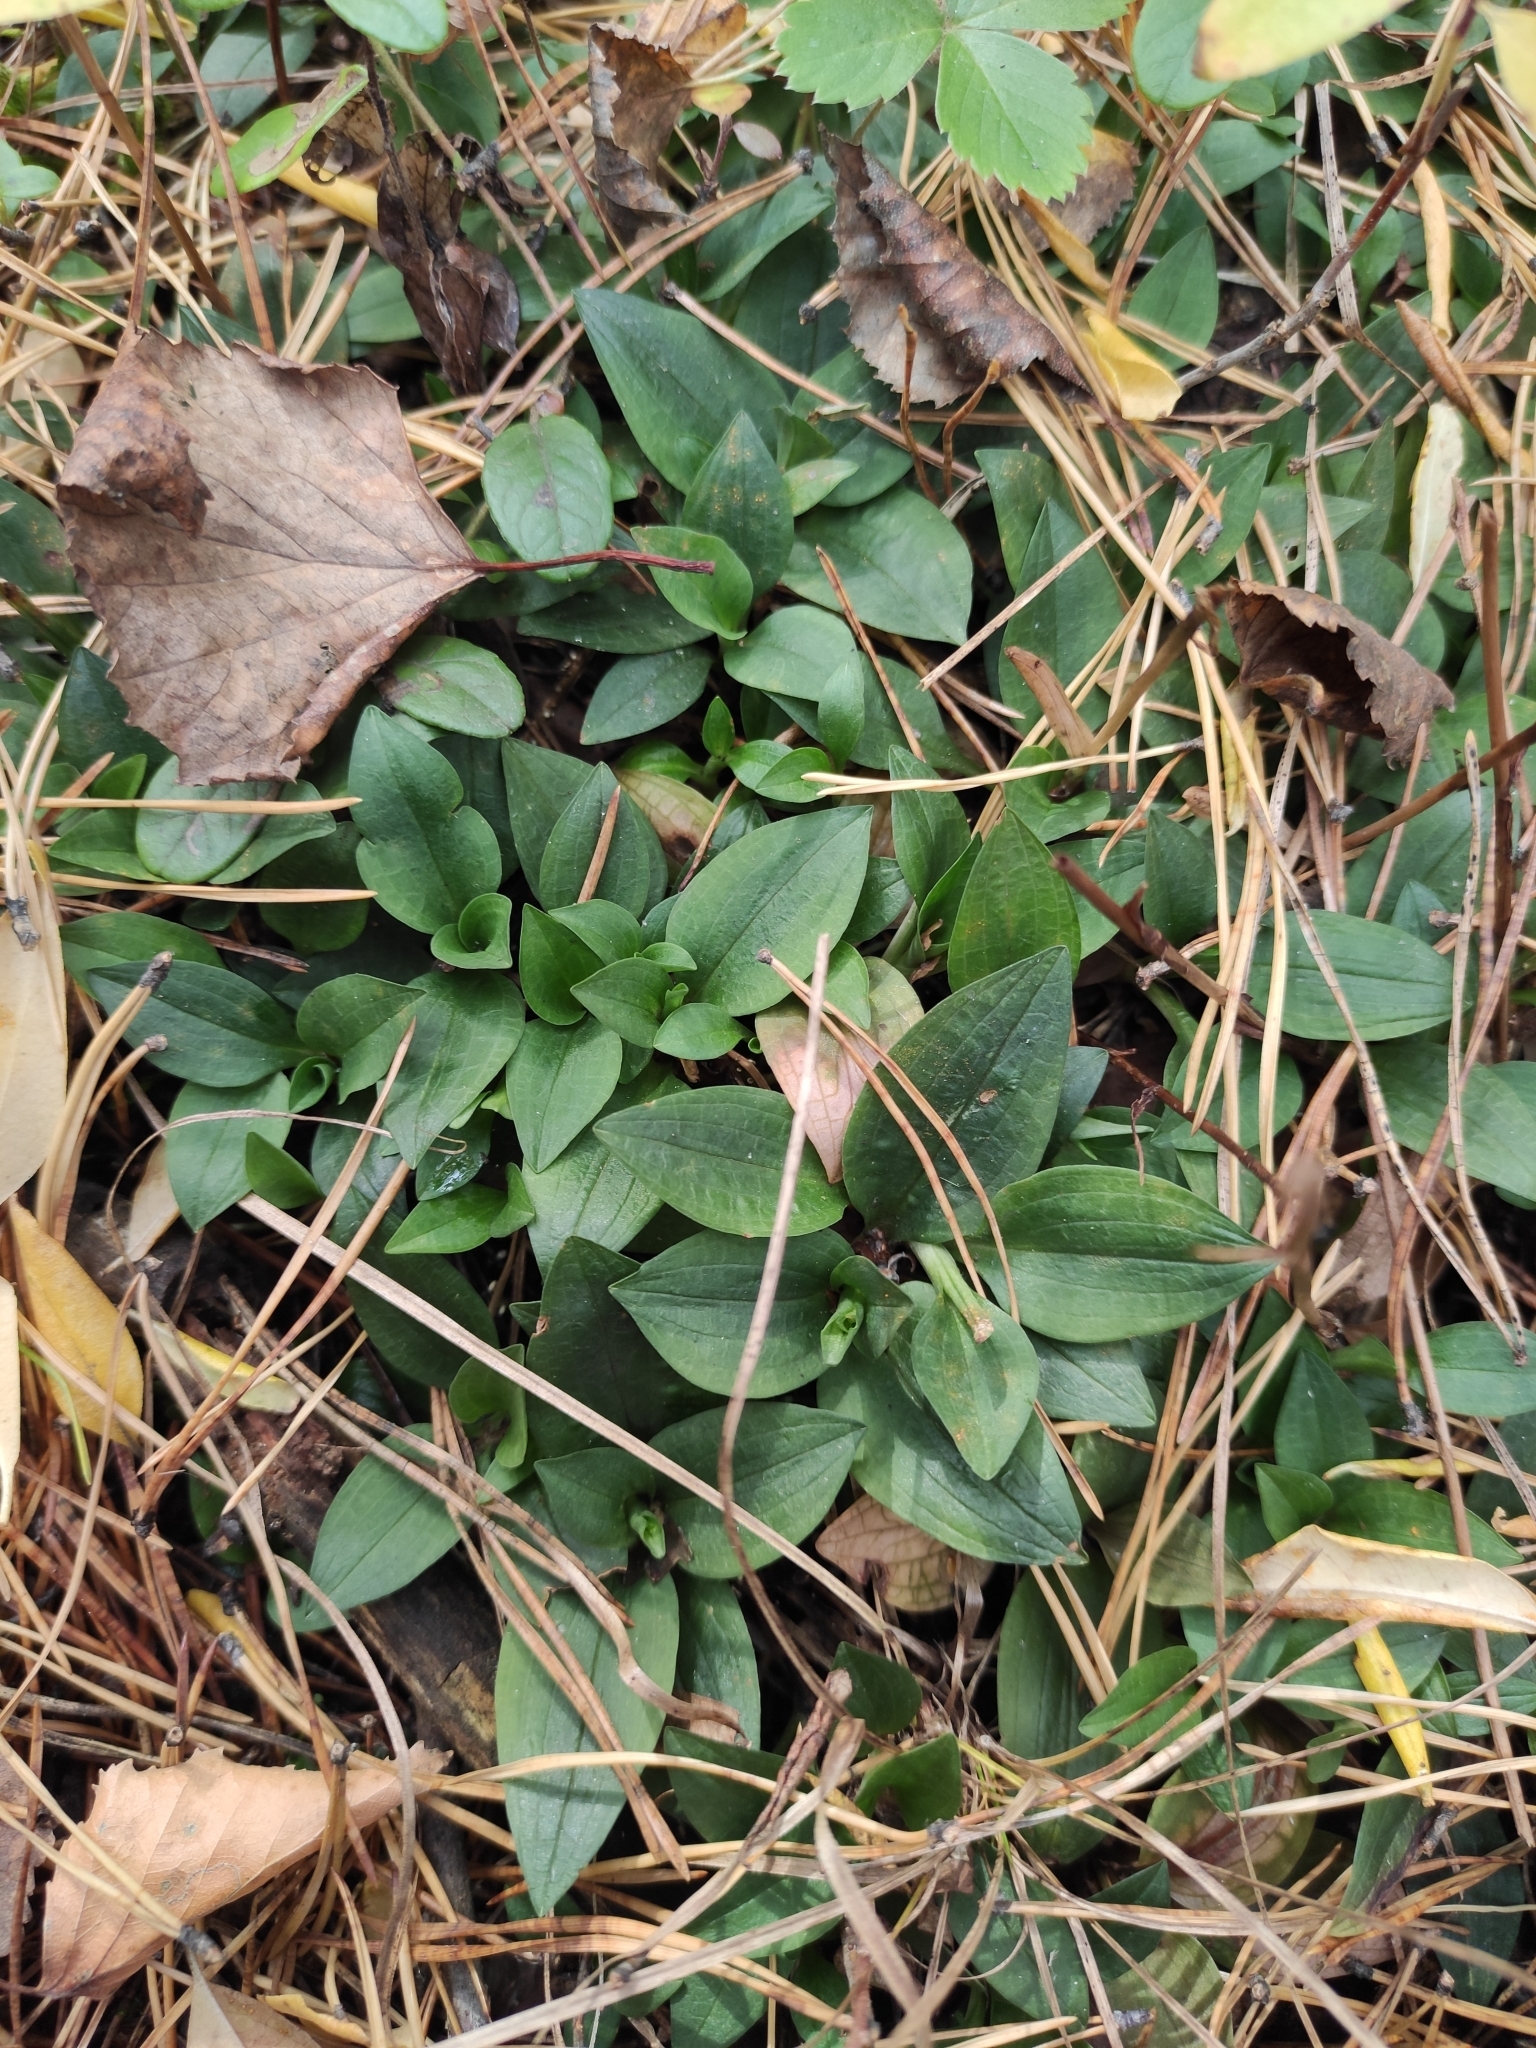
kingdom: Plantae
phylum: Tracheophyta
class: Liliopsida
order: Asparagales
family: Orchidaceae
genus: Goodyera
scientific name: Goodyera repens
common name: Creeping lady's-tresses
